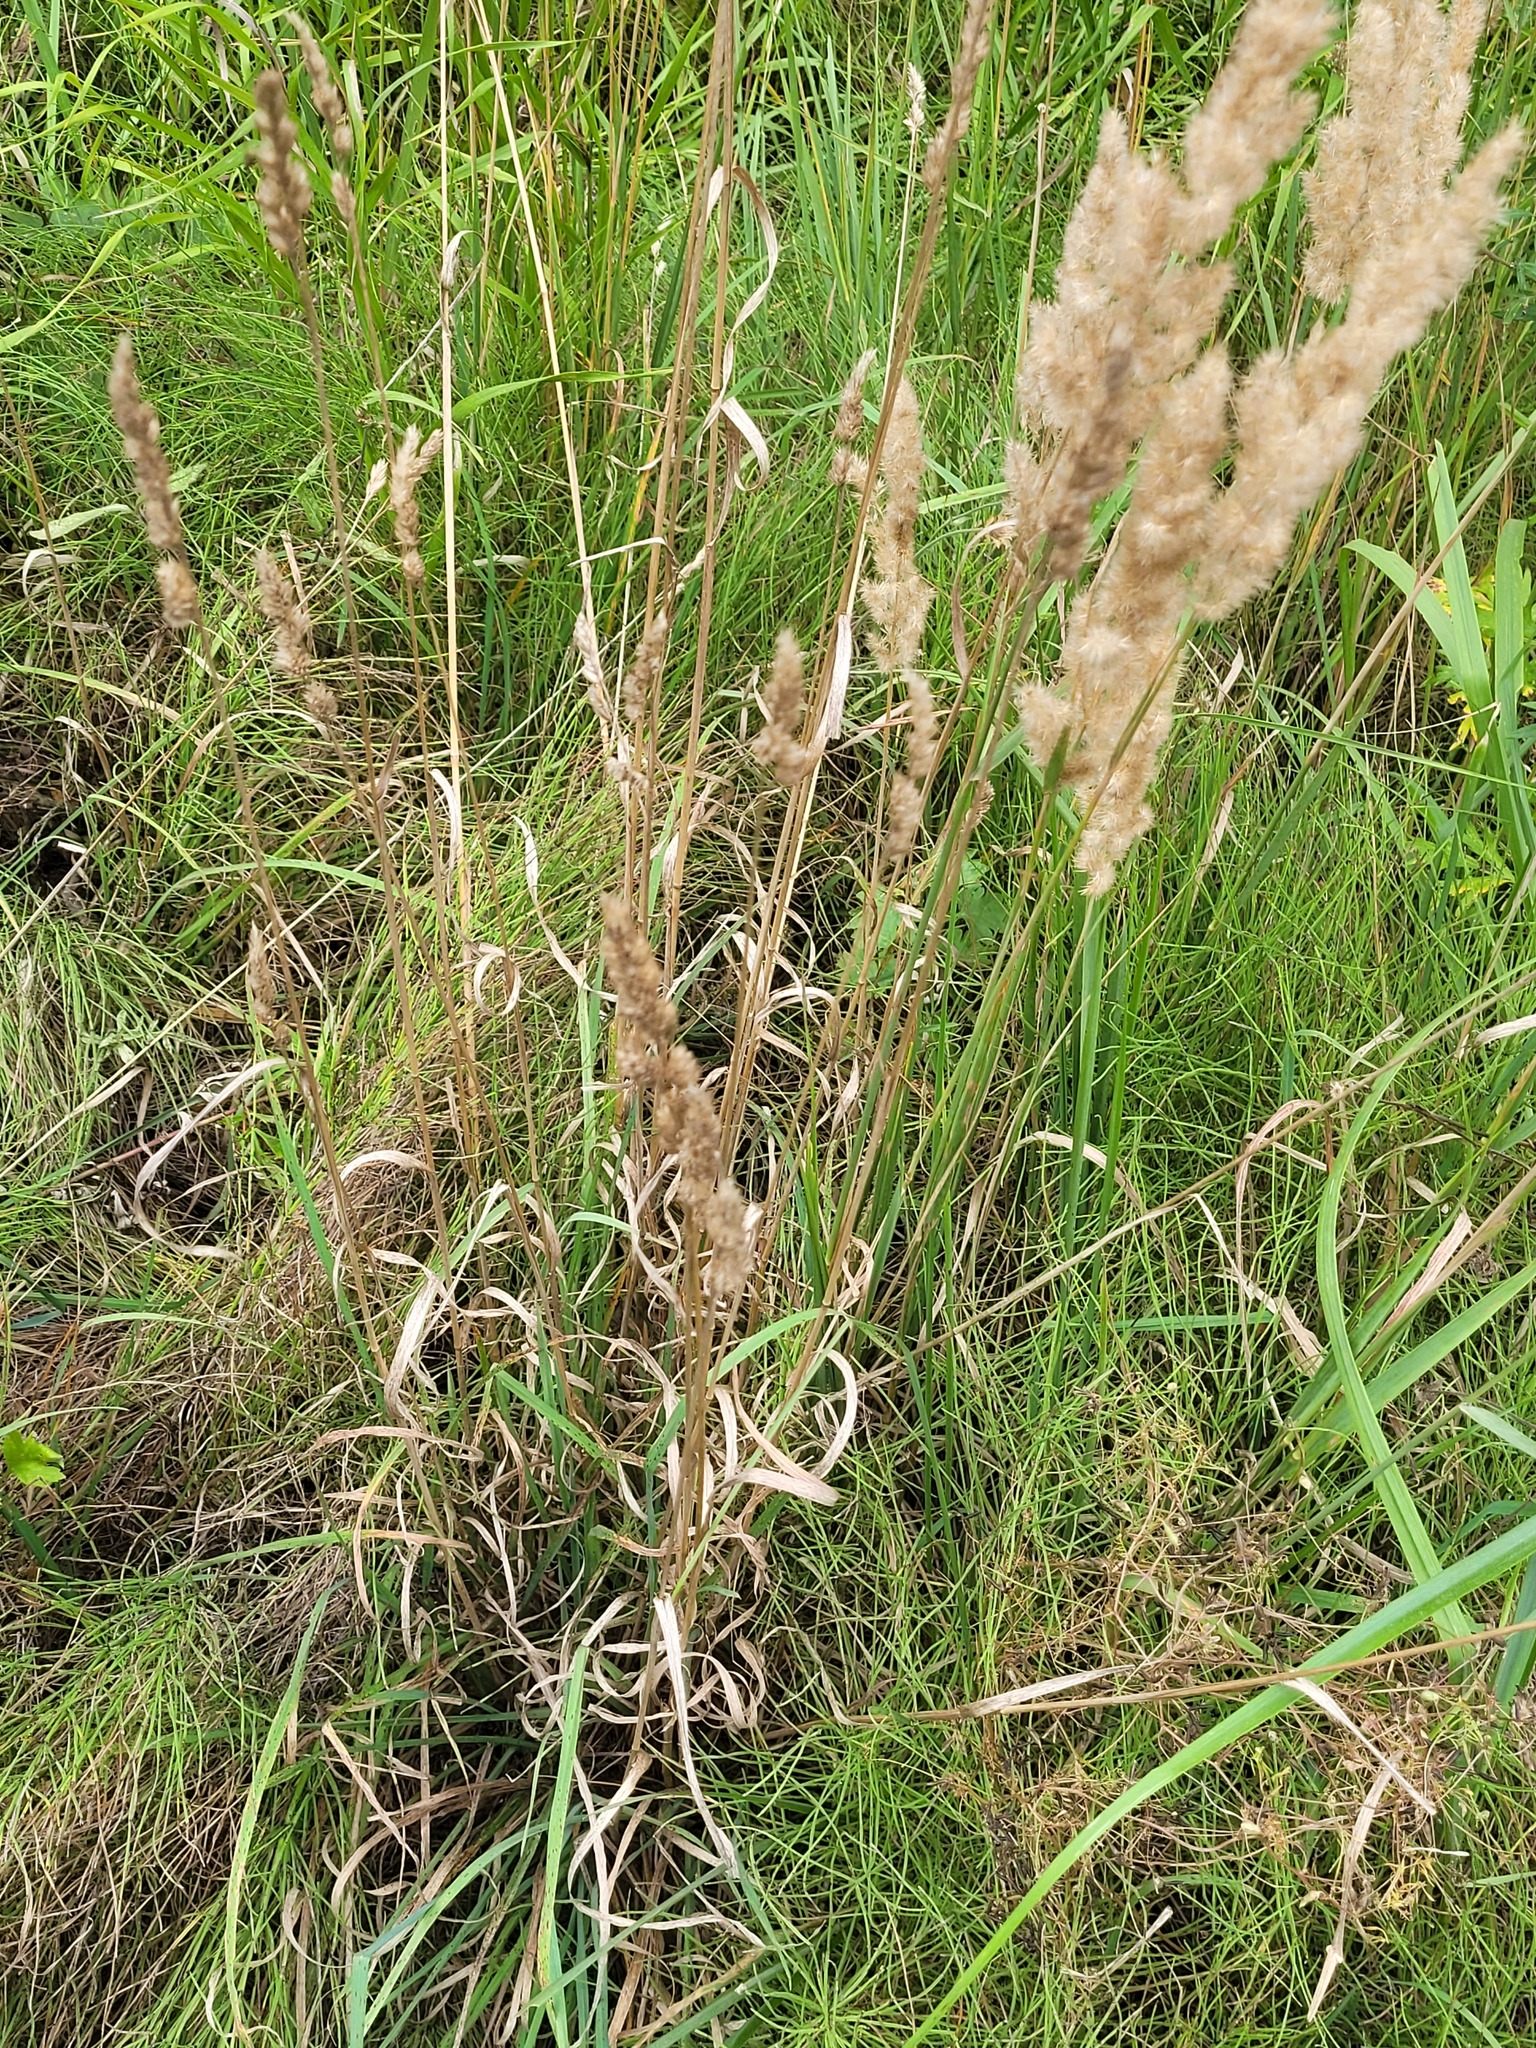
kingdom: Plantae
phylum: Tracheophyta
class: Liliopsida
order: Poales
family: Poaceae
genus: Dactylis
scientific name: Dactylis glomerata
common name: Orchardgrass
